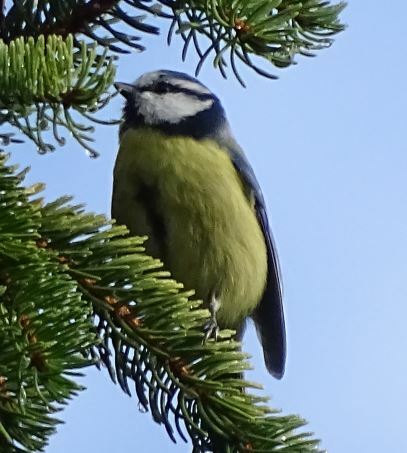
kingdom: Animalia
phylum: Chordata
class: Aves
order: Passeriformes
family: Paridae
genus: Cyanistes
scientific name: Cyanistes caeruleus
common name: Eurasian blue tit
